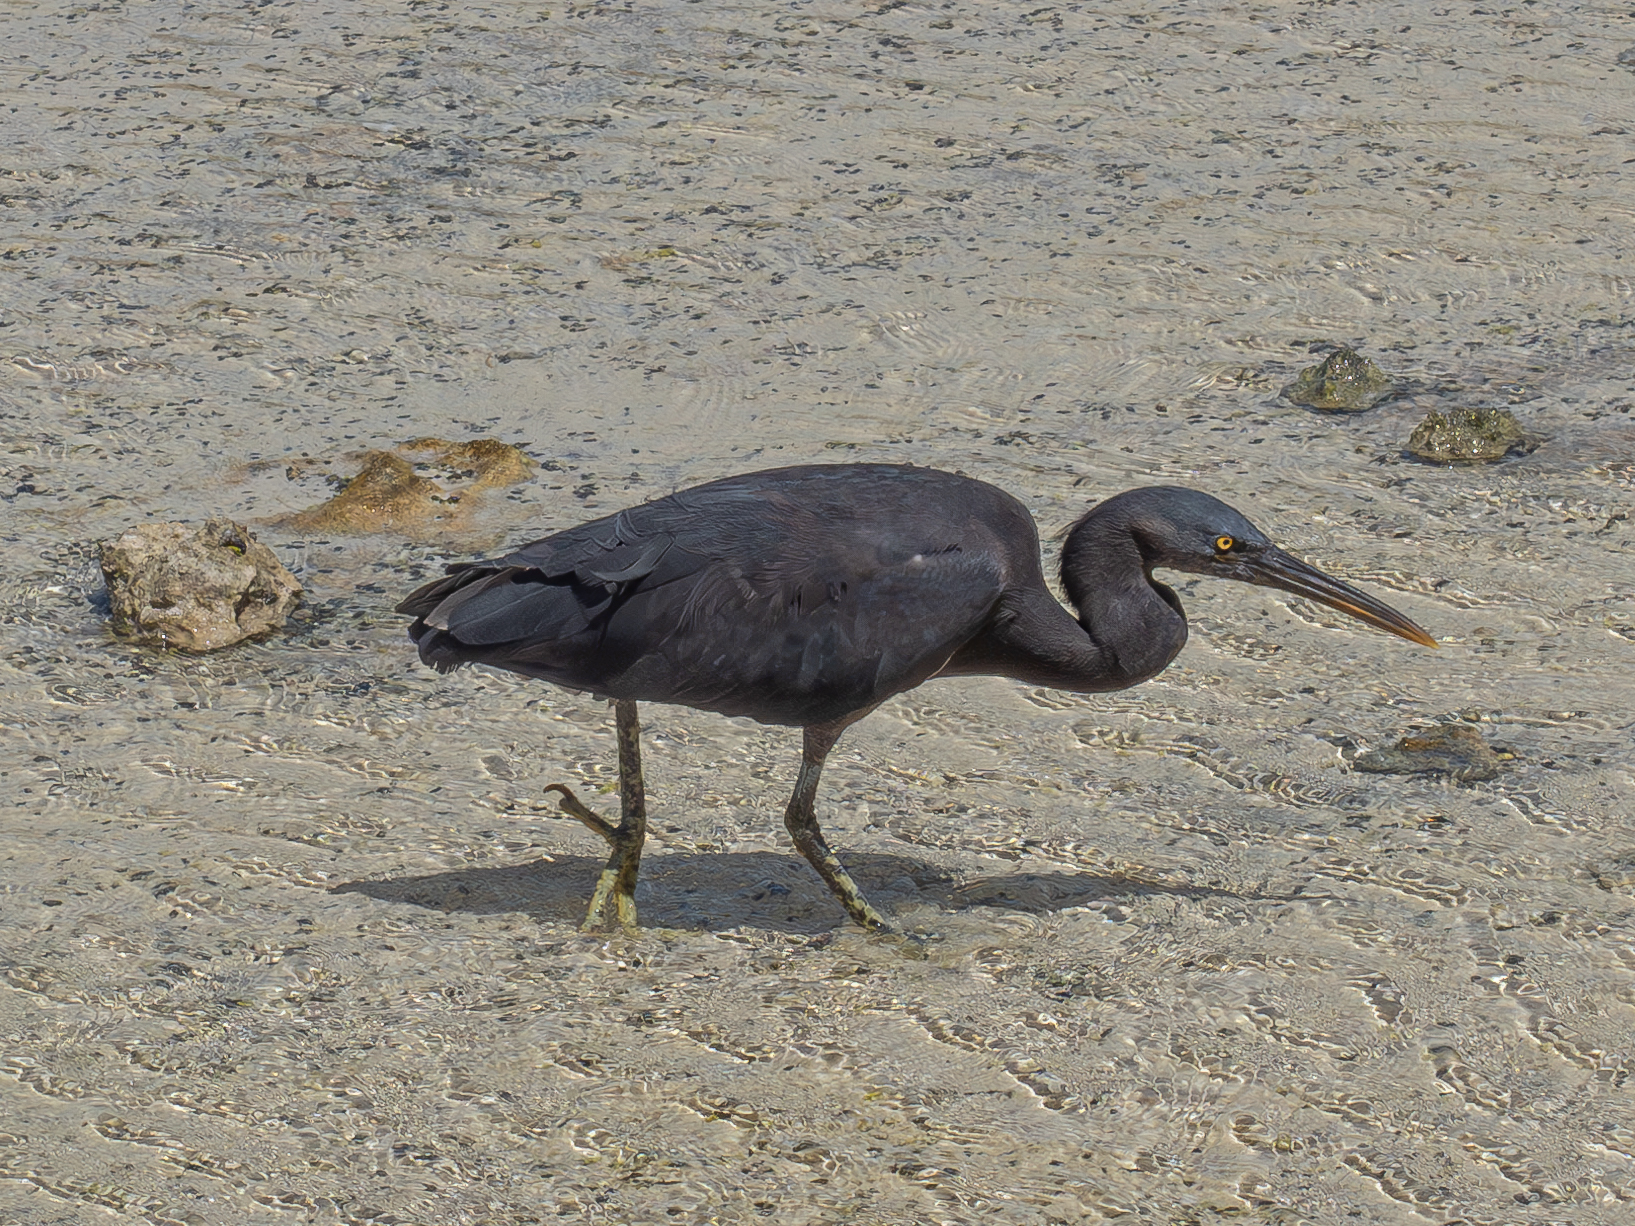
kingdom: Animalia
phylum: Chordata
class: Aves
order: Pelecaniformes
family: Ardeidae
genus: Egretta
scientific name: Egretta sacra
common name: Pacific reef heron
